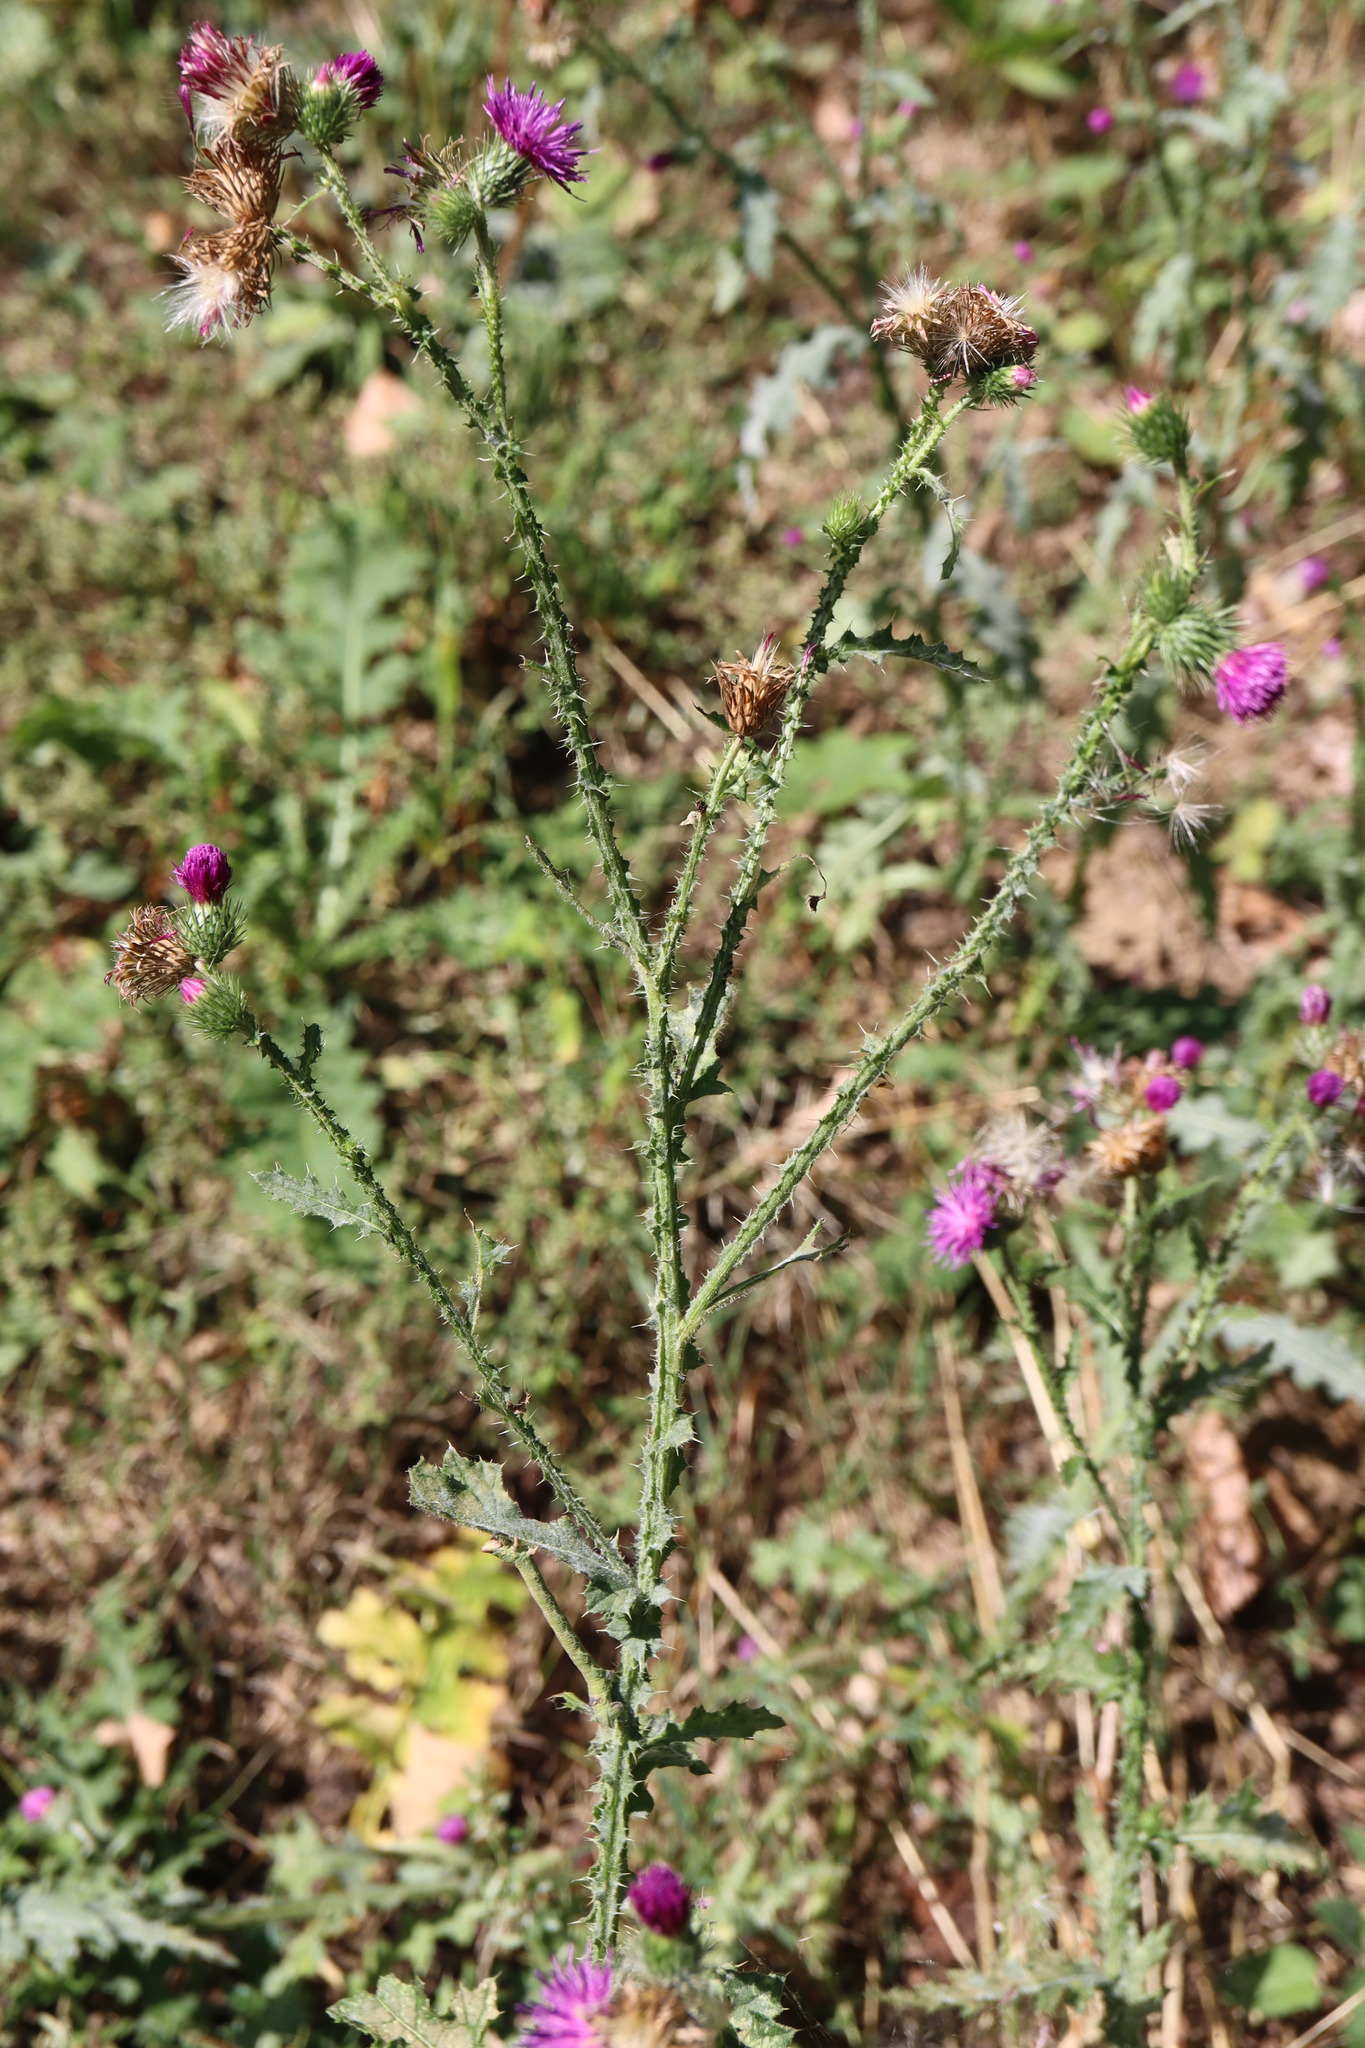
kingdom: Plantae
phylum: Tracheophyta
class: Magnoliopsida
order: Asterales
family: Asteraceae
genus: Carduus
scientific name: Carduus crispus
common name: Welted thistle
